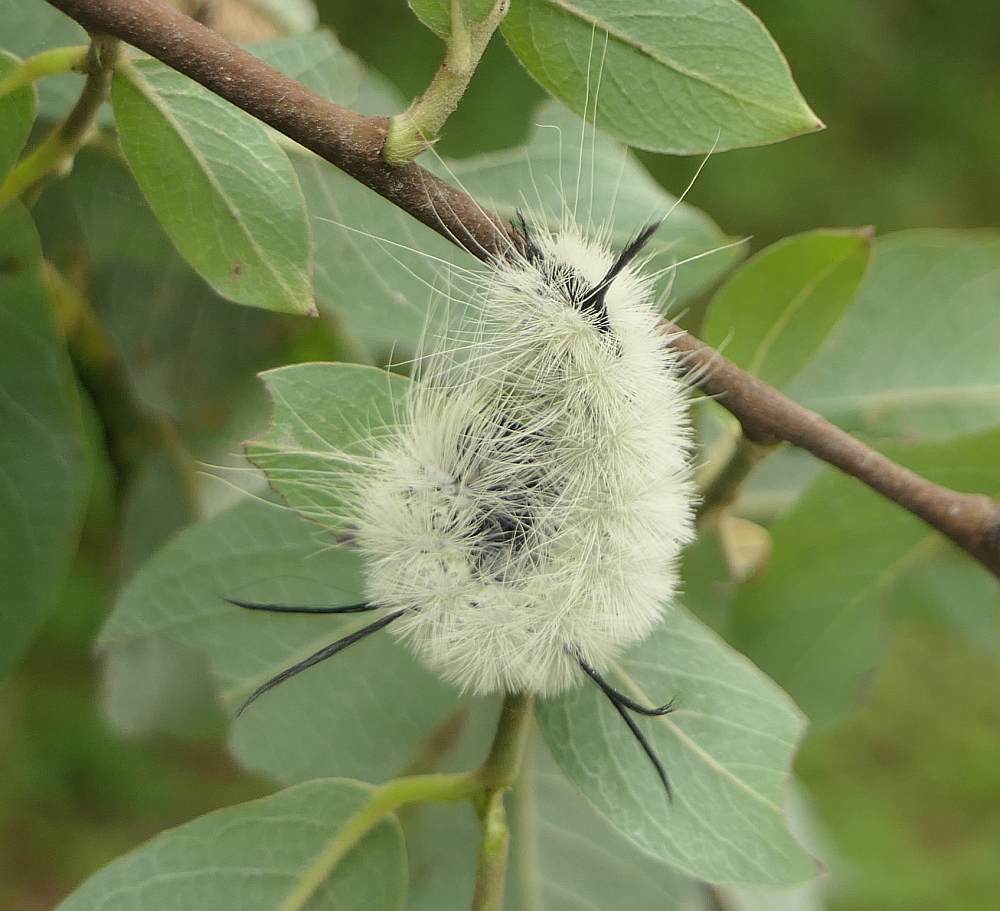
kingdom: Animalia
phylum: Arthropoda
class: Insecta
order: Lepidoptera
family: Noctuidae
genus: Acronicta
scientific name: Acronicta americana
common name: American dagger
